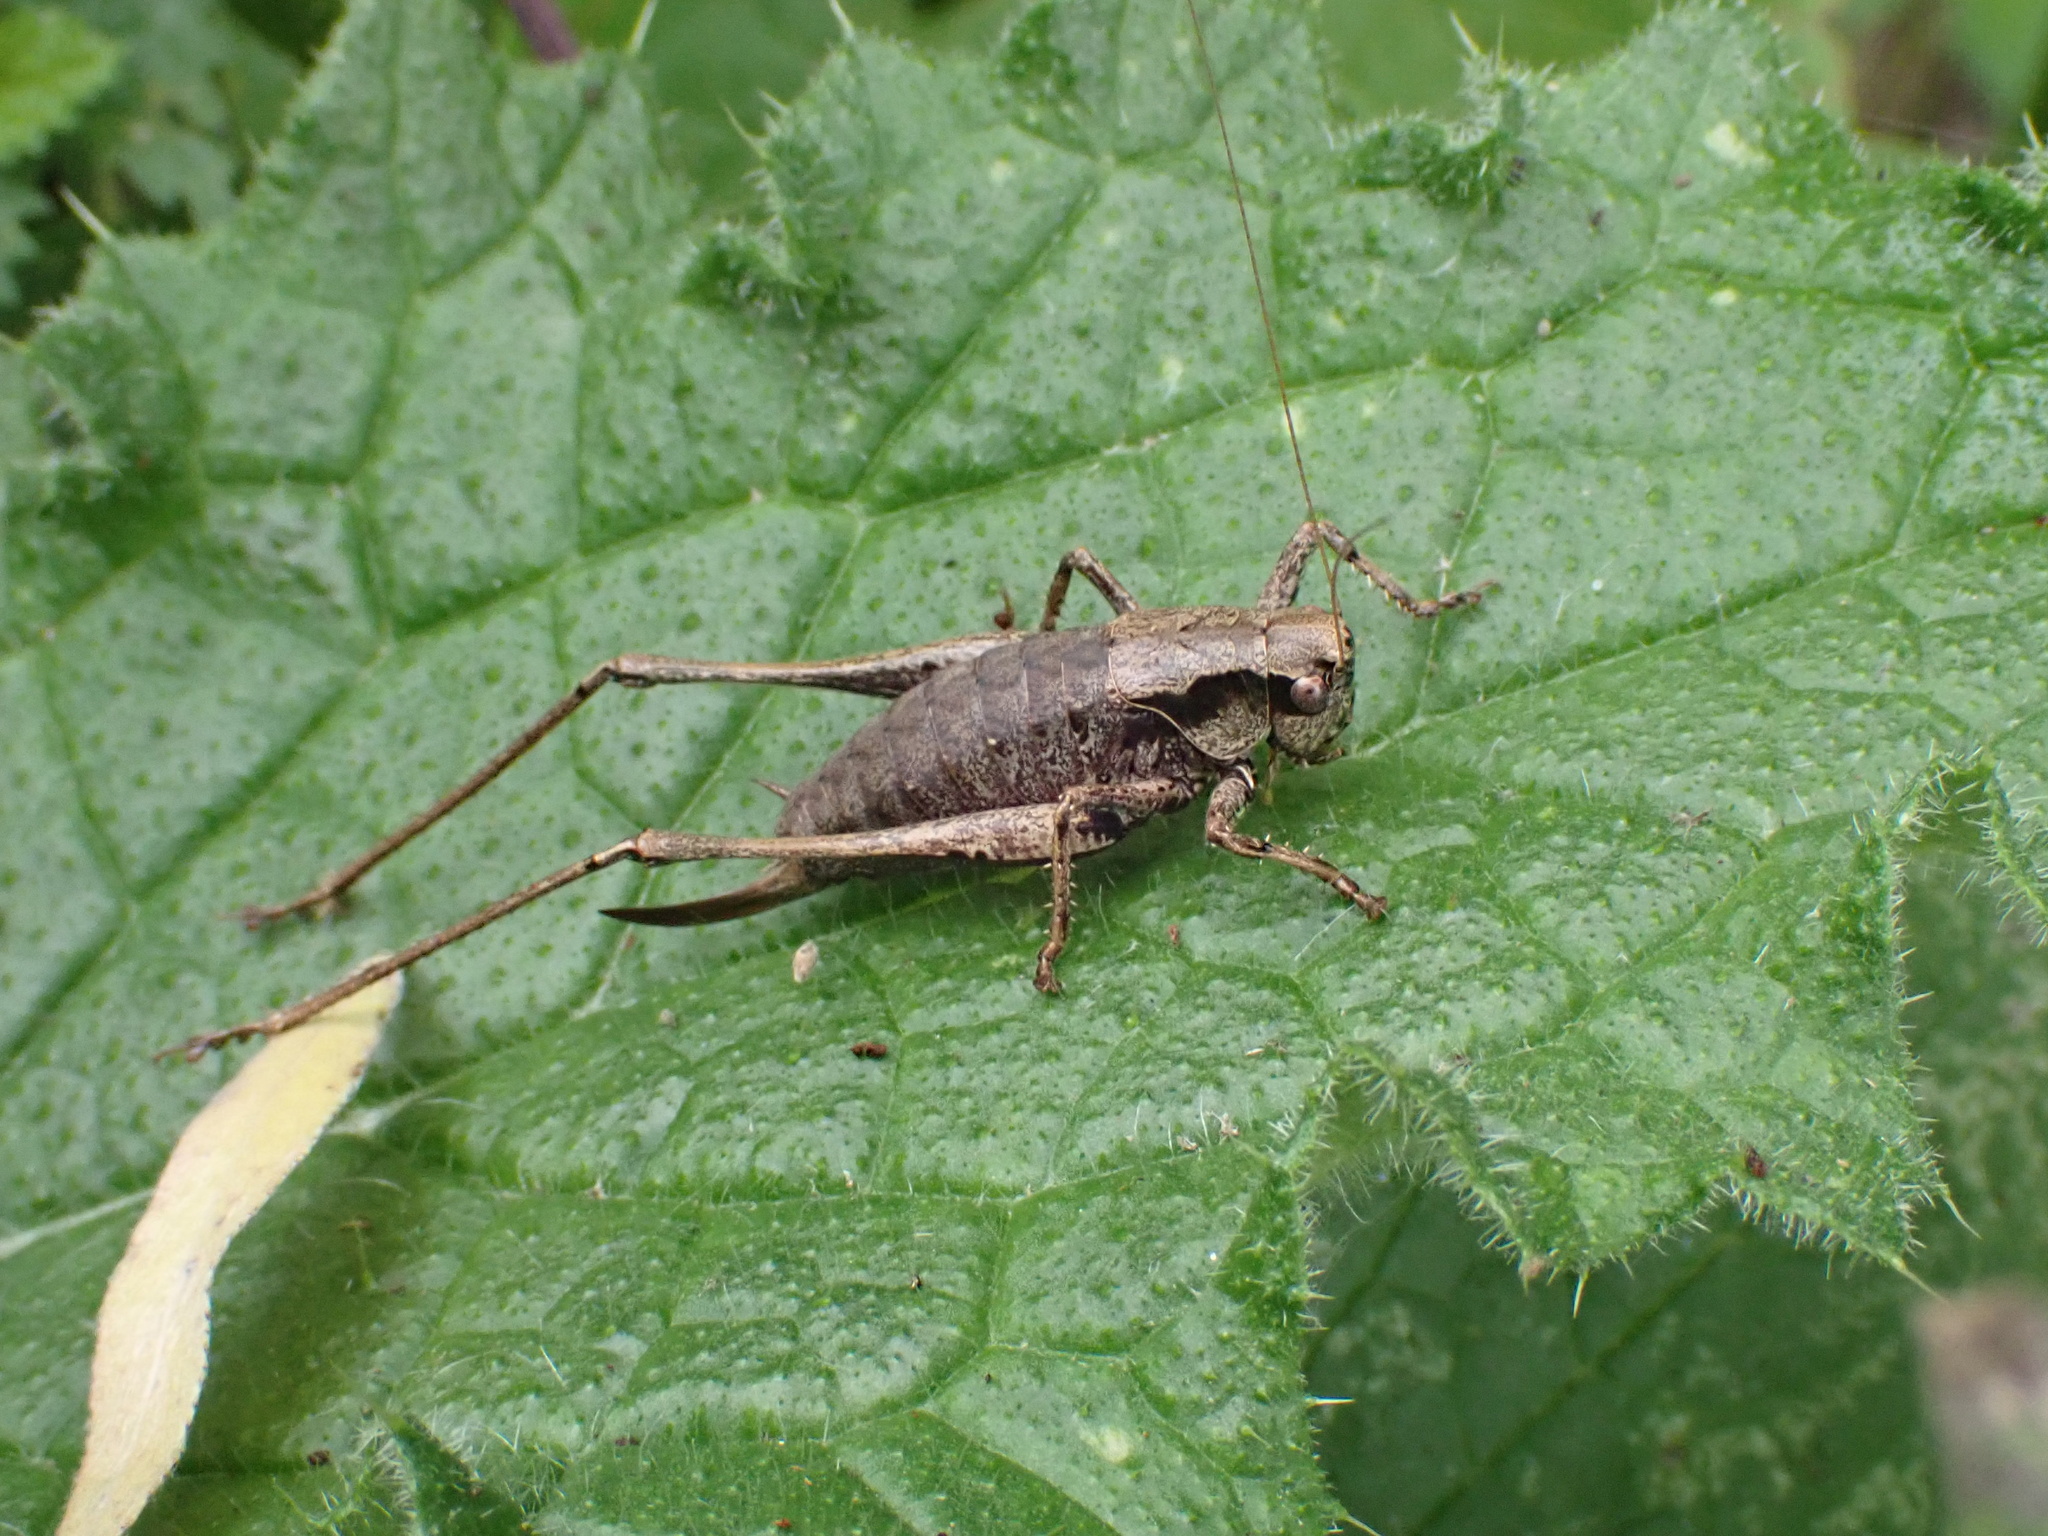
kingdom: Animalia
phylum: Arthropoda
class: Insecta
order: Orthoptera
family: Tettigoniidae
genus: Pholidoptera
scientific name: Pholidoptera griseoaptera
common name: Dark bush-cricket
